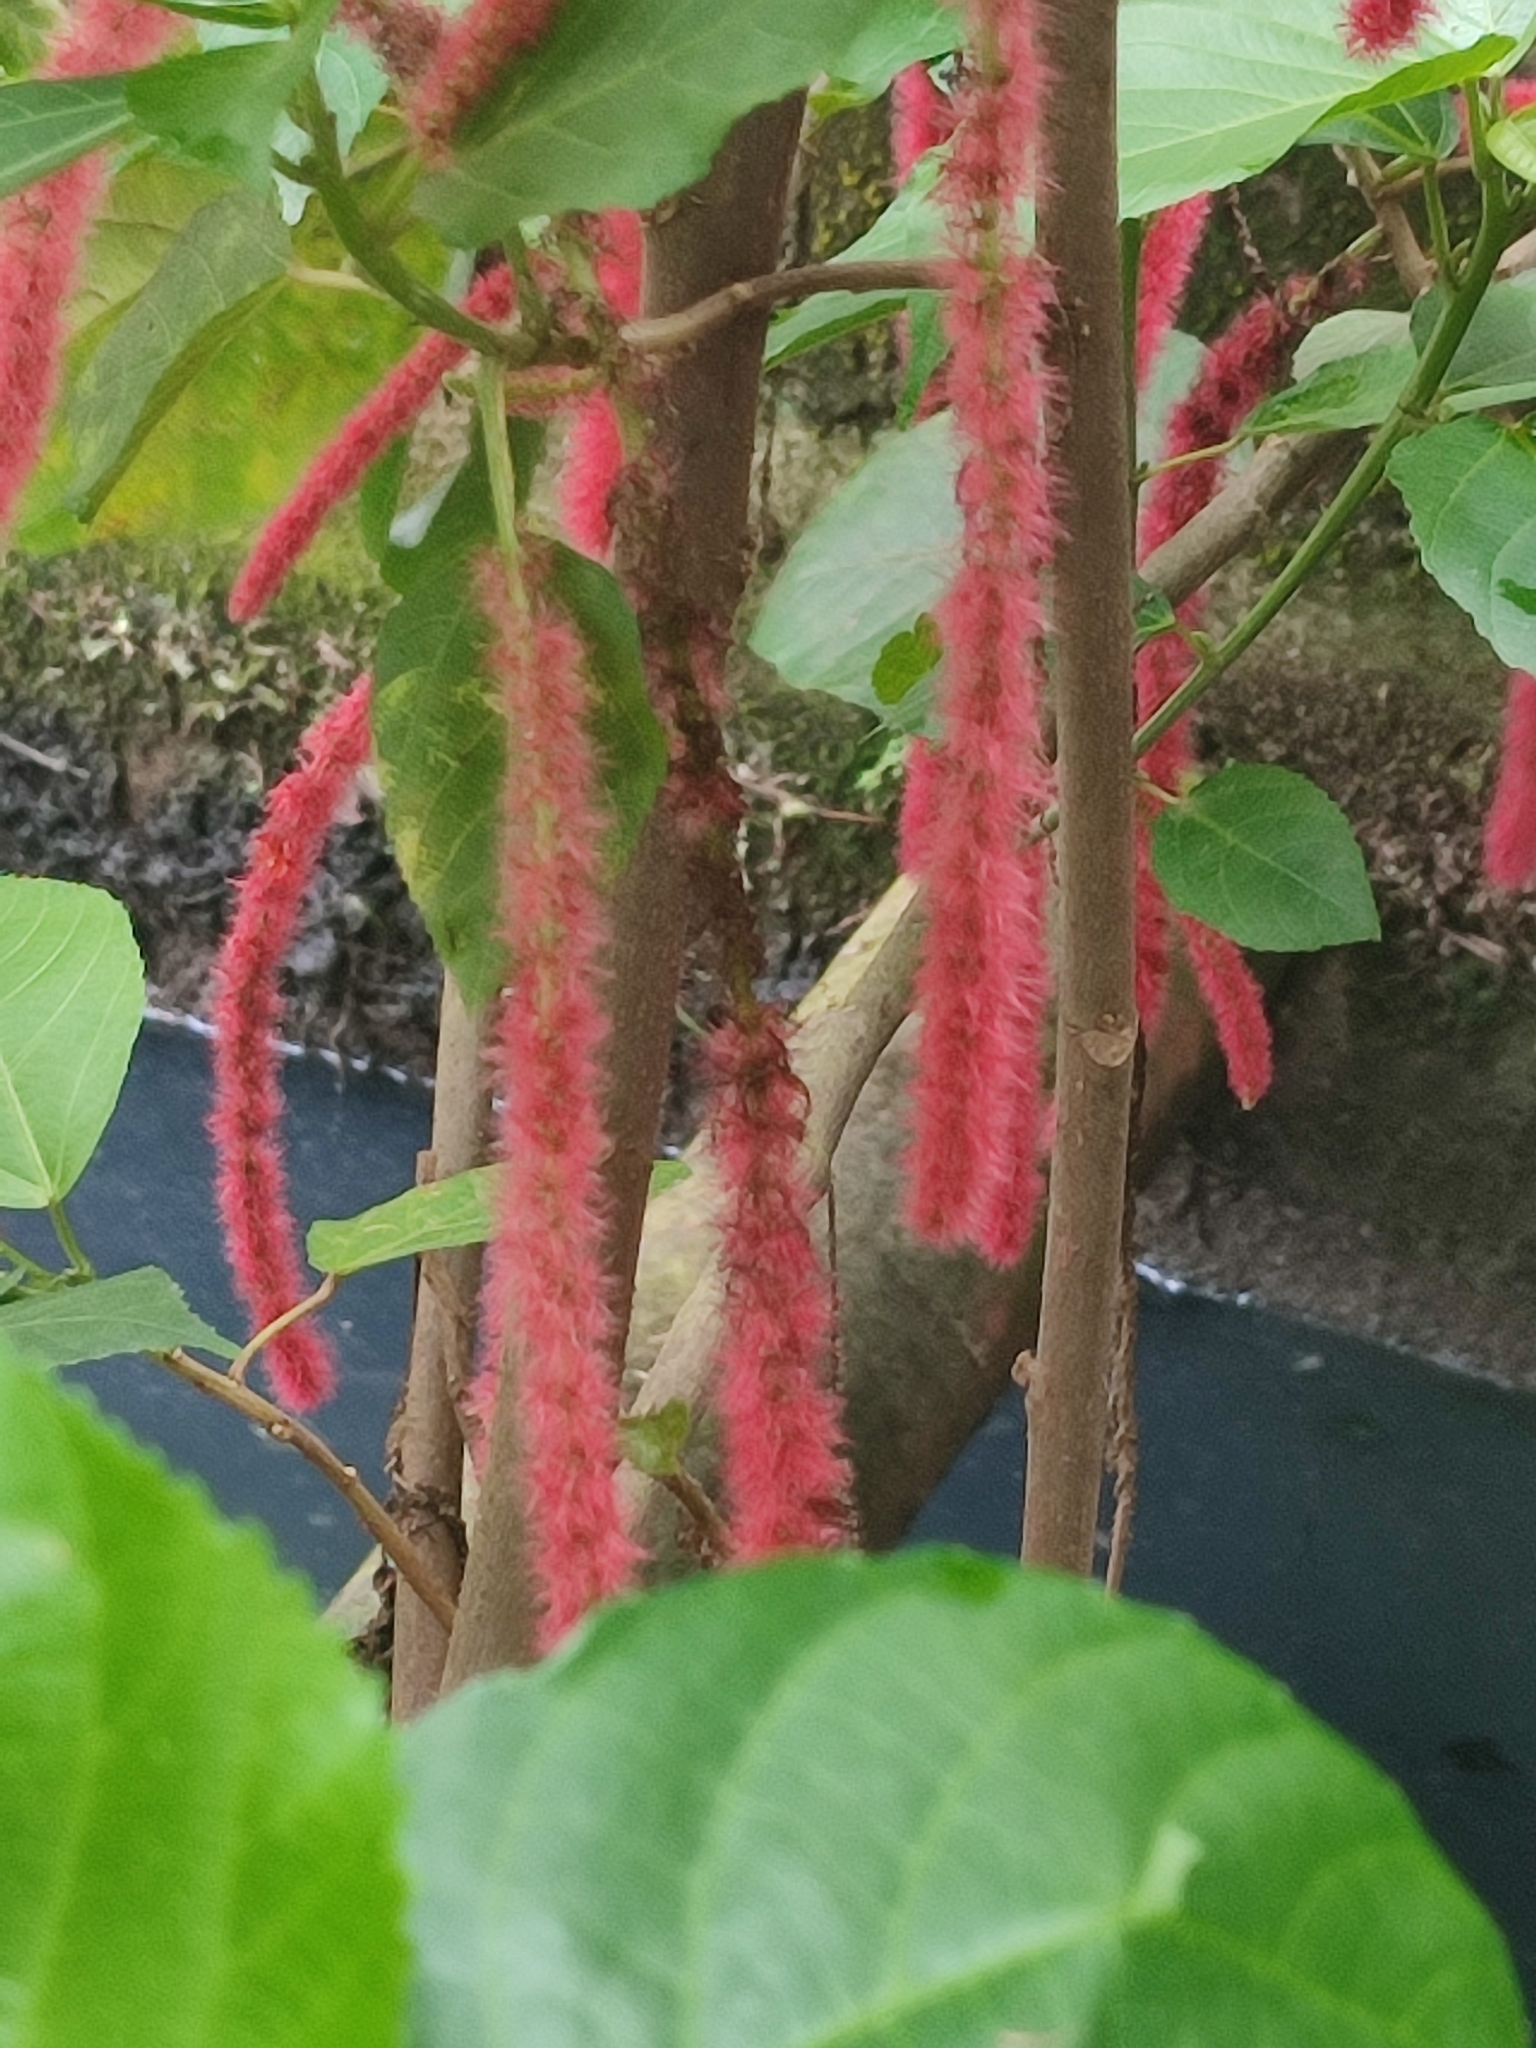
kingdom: Plantae
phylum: Tracheophyta
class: Magnoliopsida
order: Malpighiales
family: Euphorbiaceae
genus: Acalypha
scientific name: Acalypha hispida
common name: Chenilleplant
